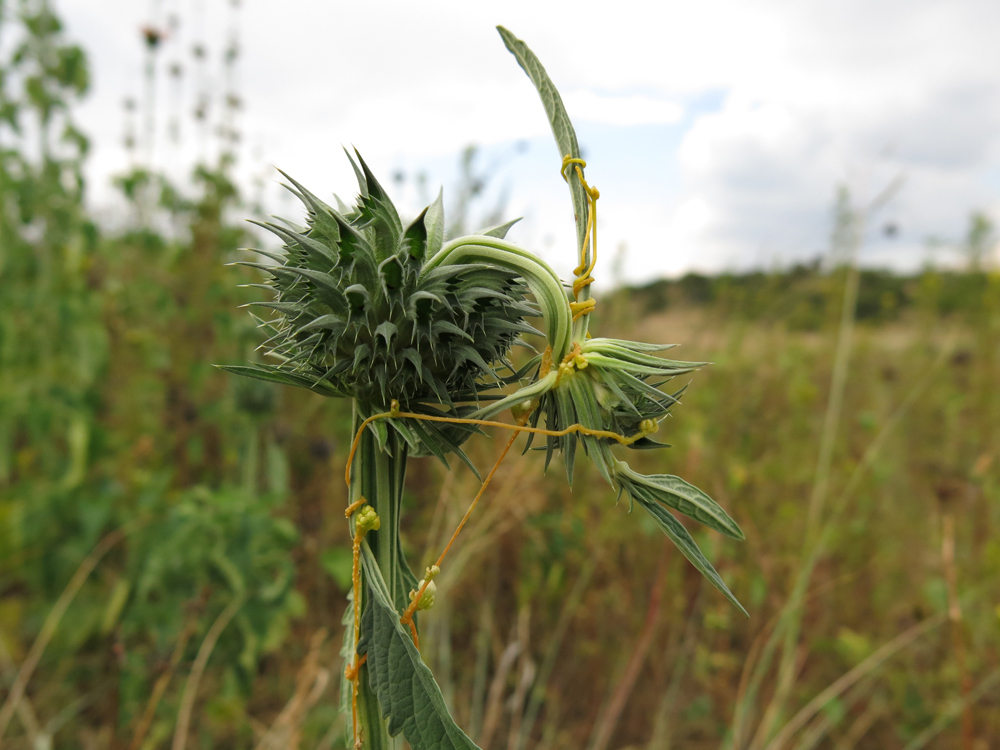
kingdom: Plantae
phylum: Tracheophyta
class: Magnoliopsida
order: Solanales
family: Convolvulaceae
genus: Cuscuta
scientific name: Cuscuta campestris
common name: Yellow dodder
